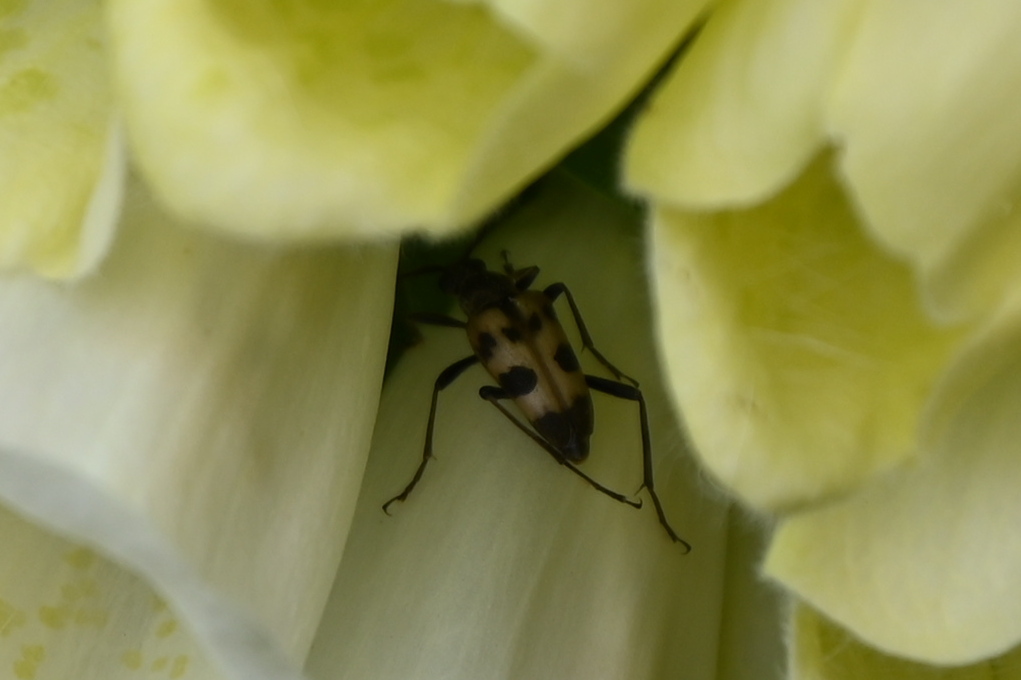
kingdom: Animalia
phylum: Arthropoda
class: Insecta
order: Coleoptera
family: Cerambycidae
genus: Pachytodes
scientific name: Pachytodes cerambyciformis
